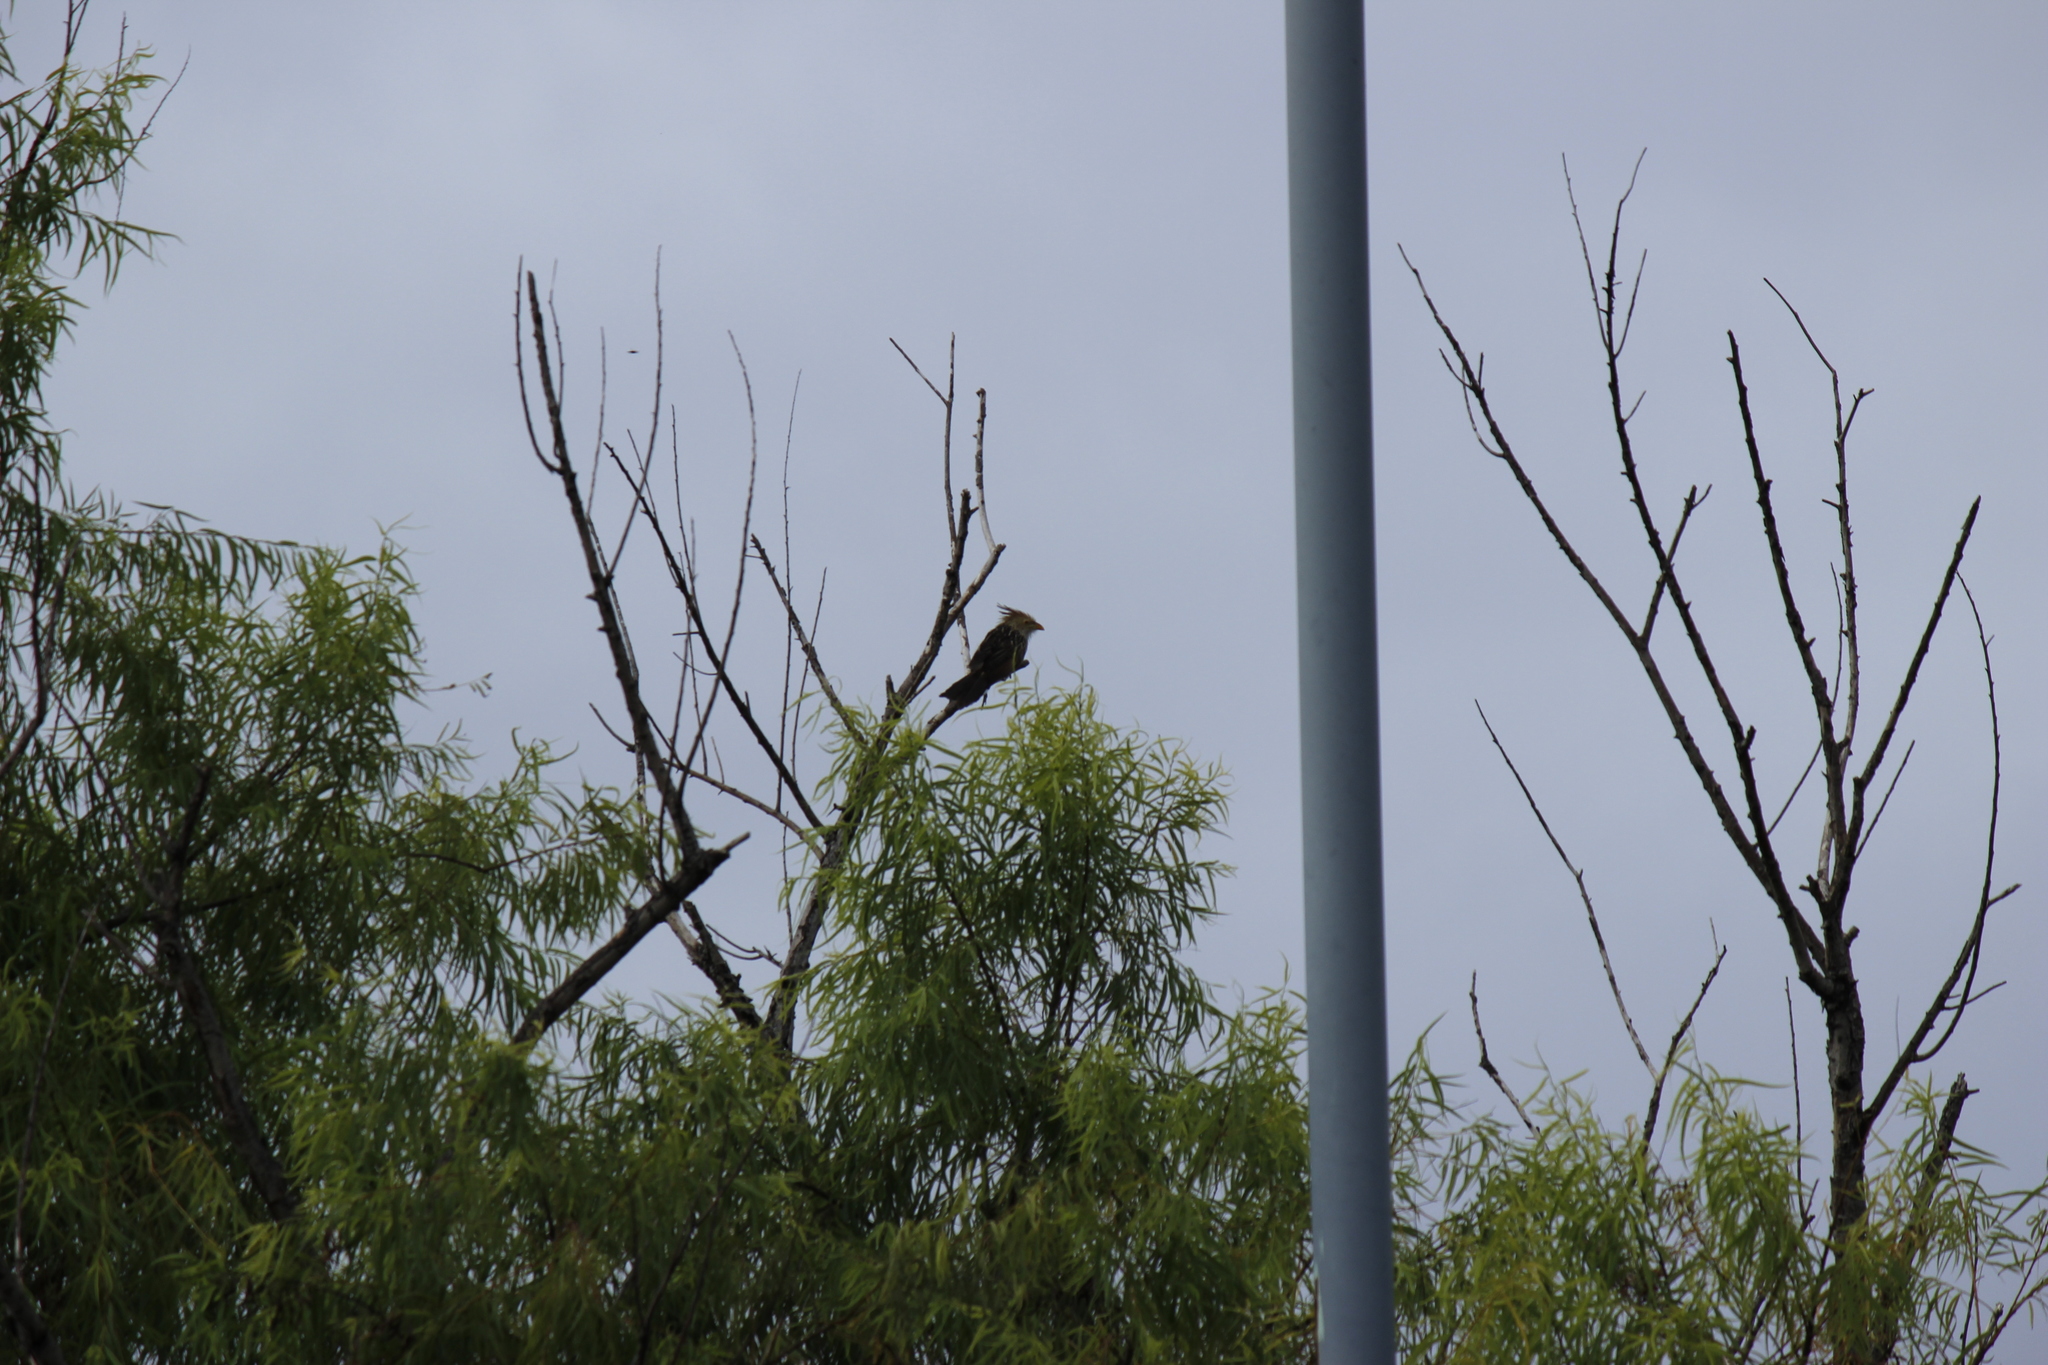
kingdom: Animalia
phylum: Chordata
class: Aves
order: Cuculiformes
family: Cuculidae
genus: Guira
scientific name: Guira guira
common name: Guira cuckoo
